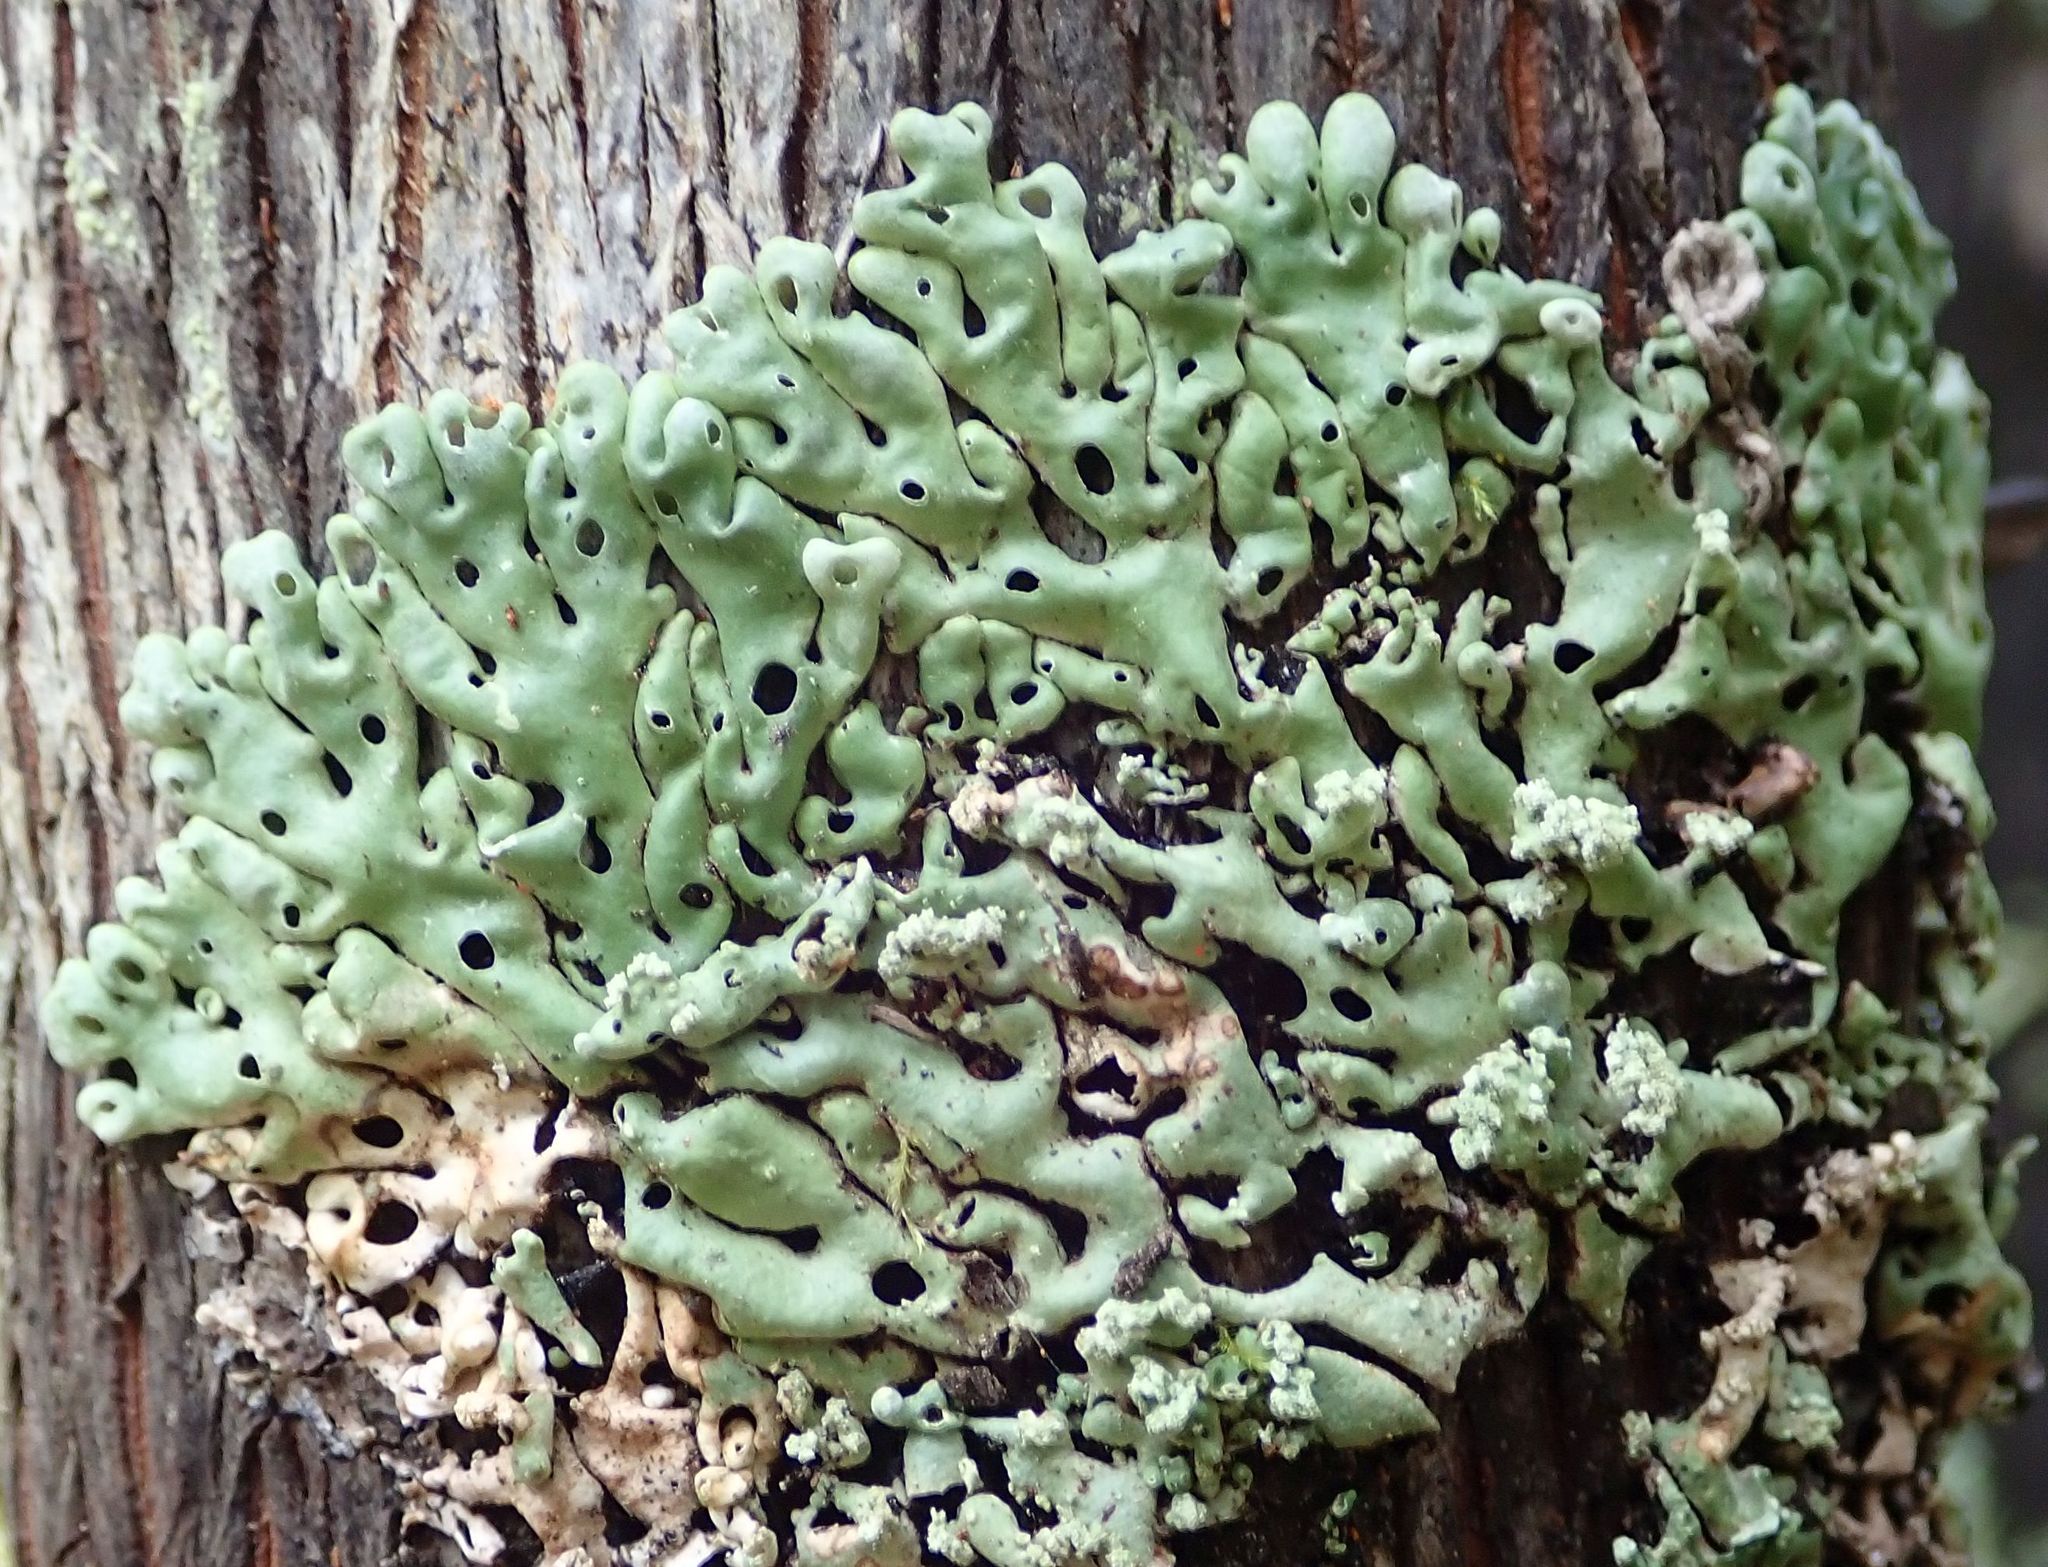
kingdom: Fungi
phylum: Ascomycota
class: Lecanoromycetes
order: Lecanorales
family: Parmeliaceae
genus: Menegazzia
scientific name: Menegazzia subpertusa
